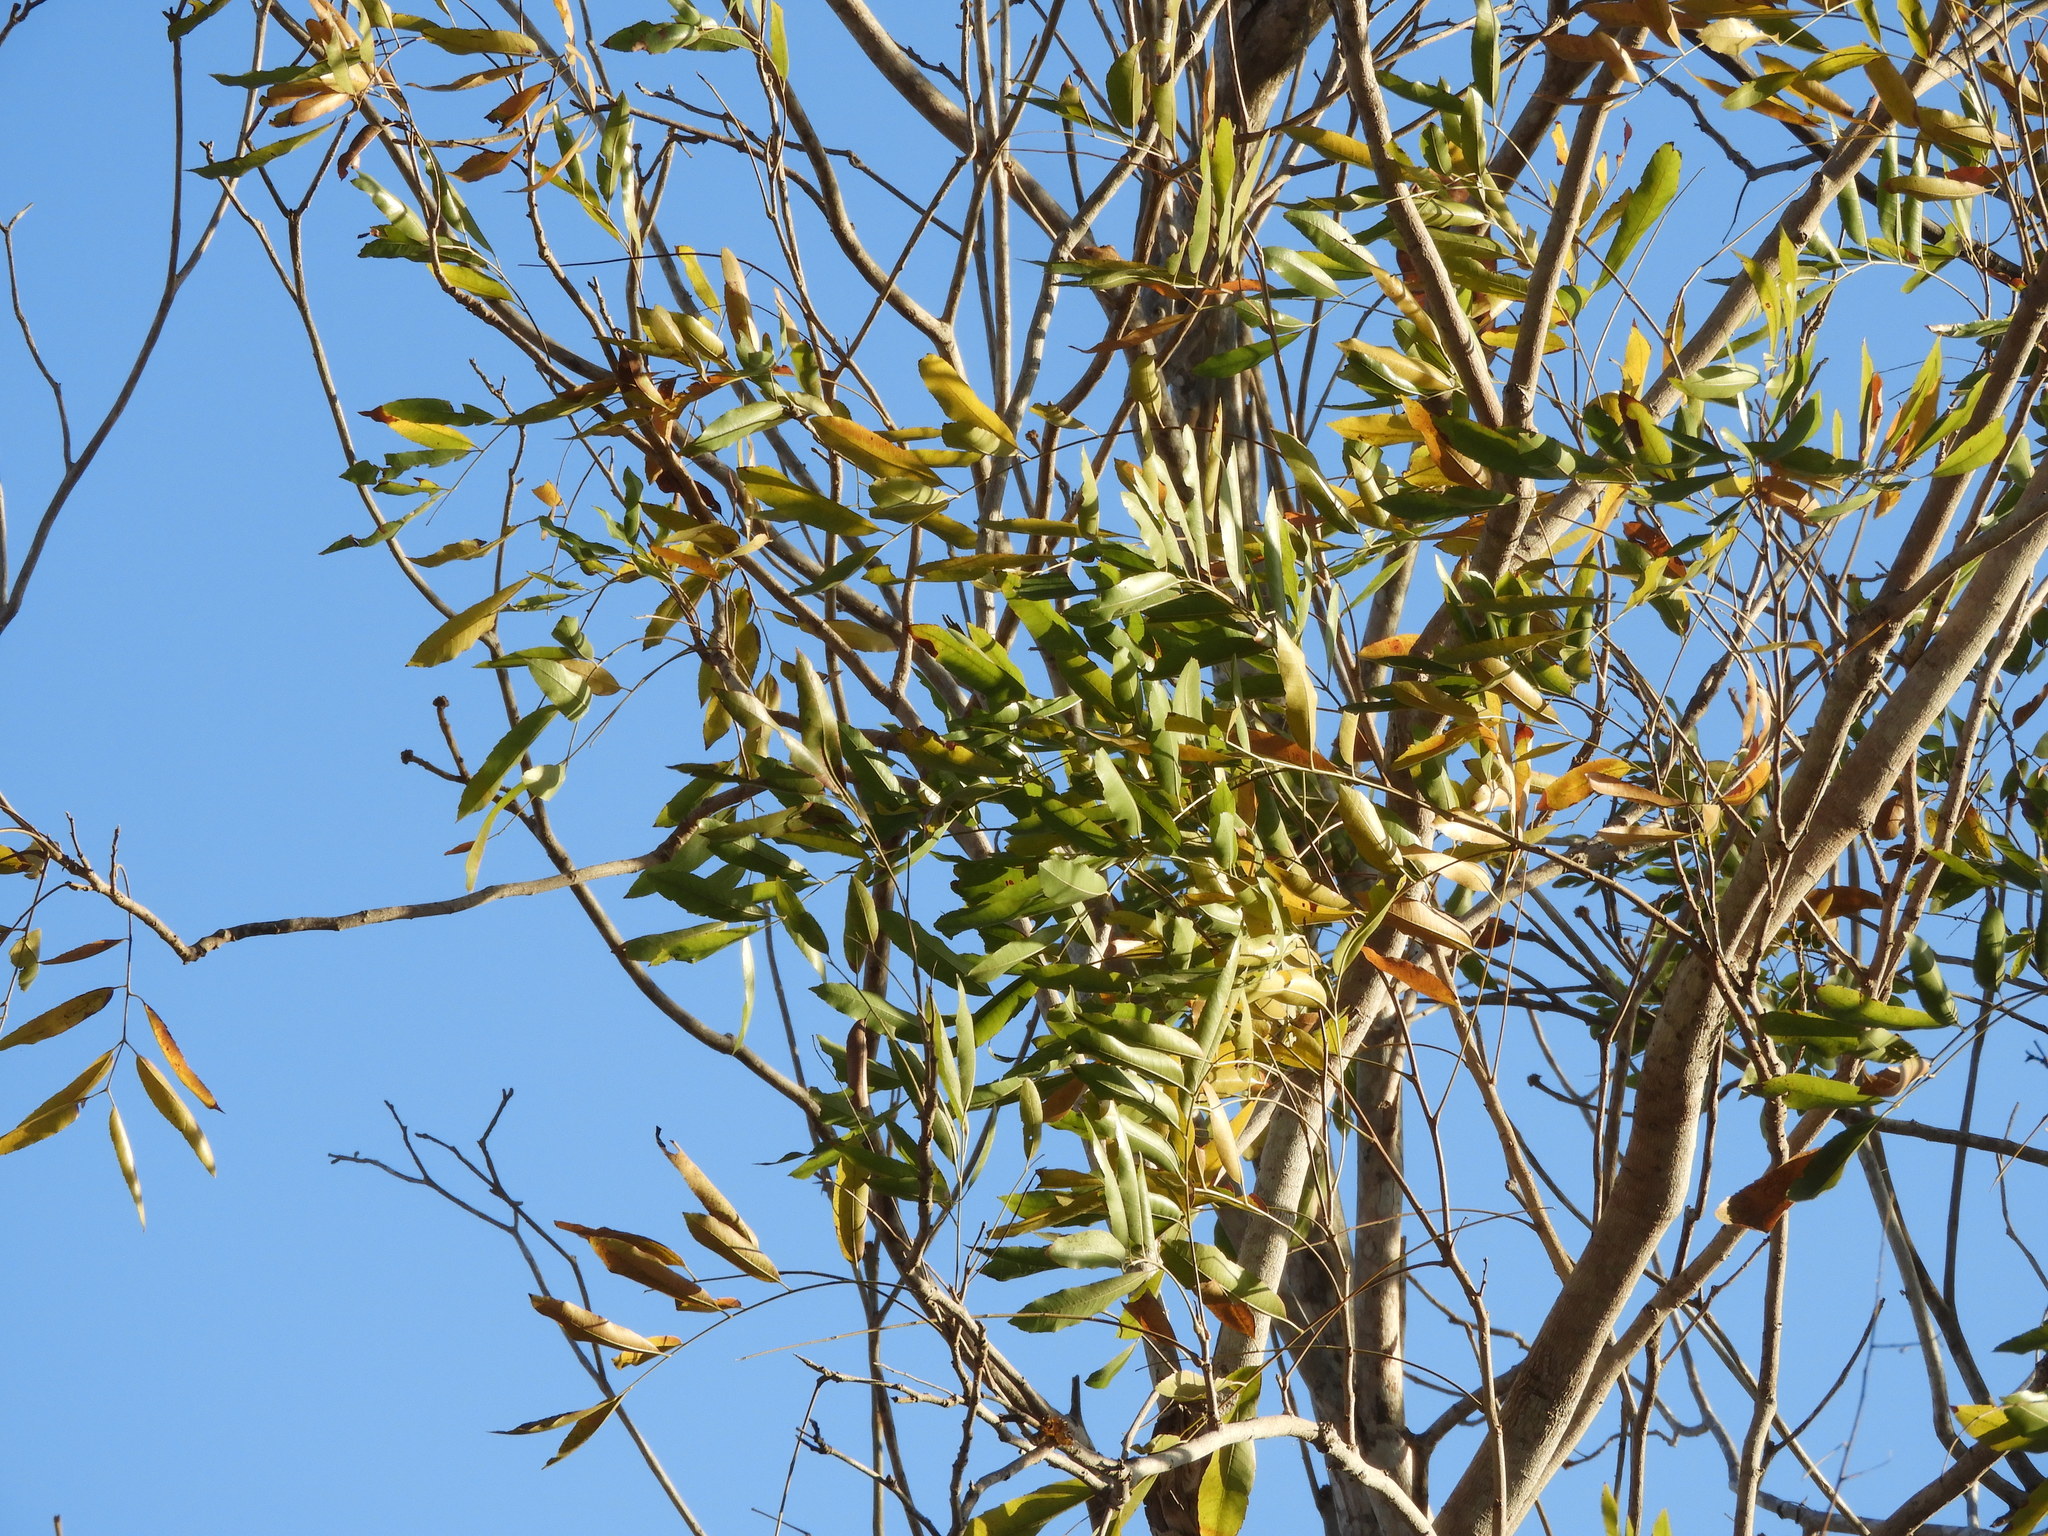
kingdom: Plantae
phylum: Tracheophyta
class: Magnoliopsida
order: Sapindales
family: Sapindaceae
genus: Thouinidium
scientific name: Thouinidium decandrum
